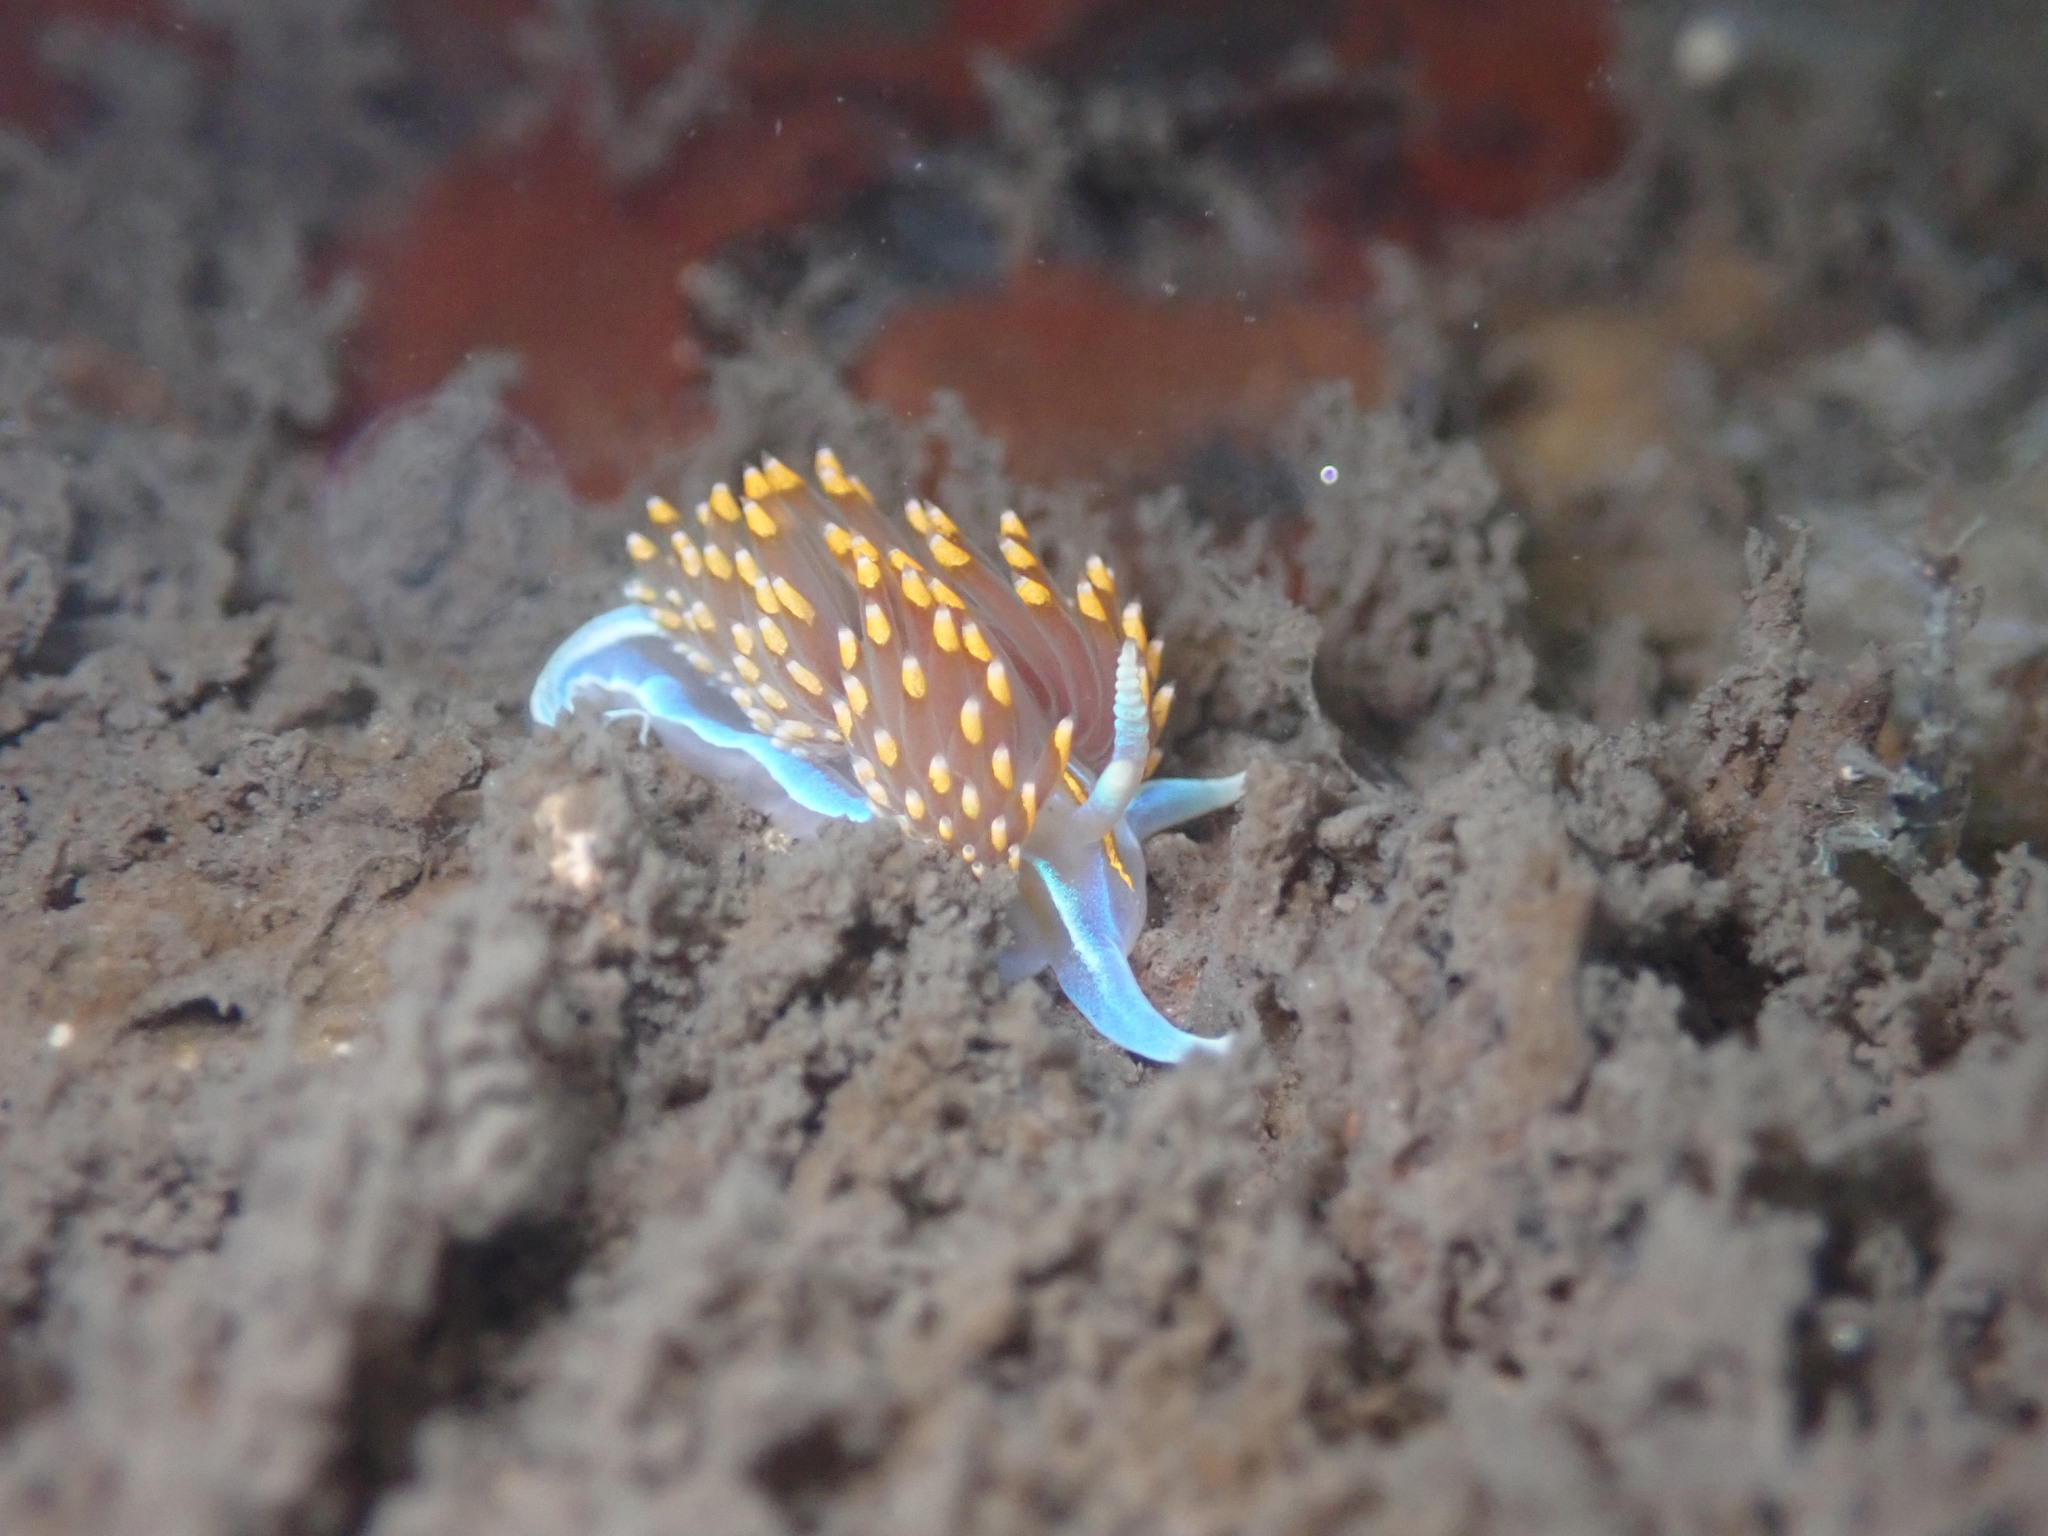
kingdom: Animalia
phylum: Mollusca
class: Gastropoda
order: Nudibranchia
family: Myrrhinidae
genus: Hermissenda
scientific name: Hermissenda opalescens
